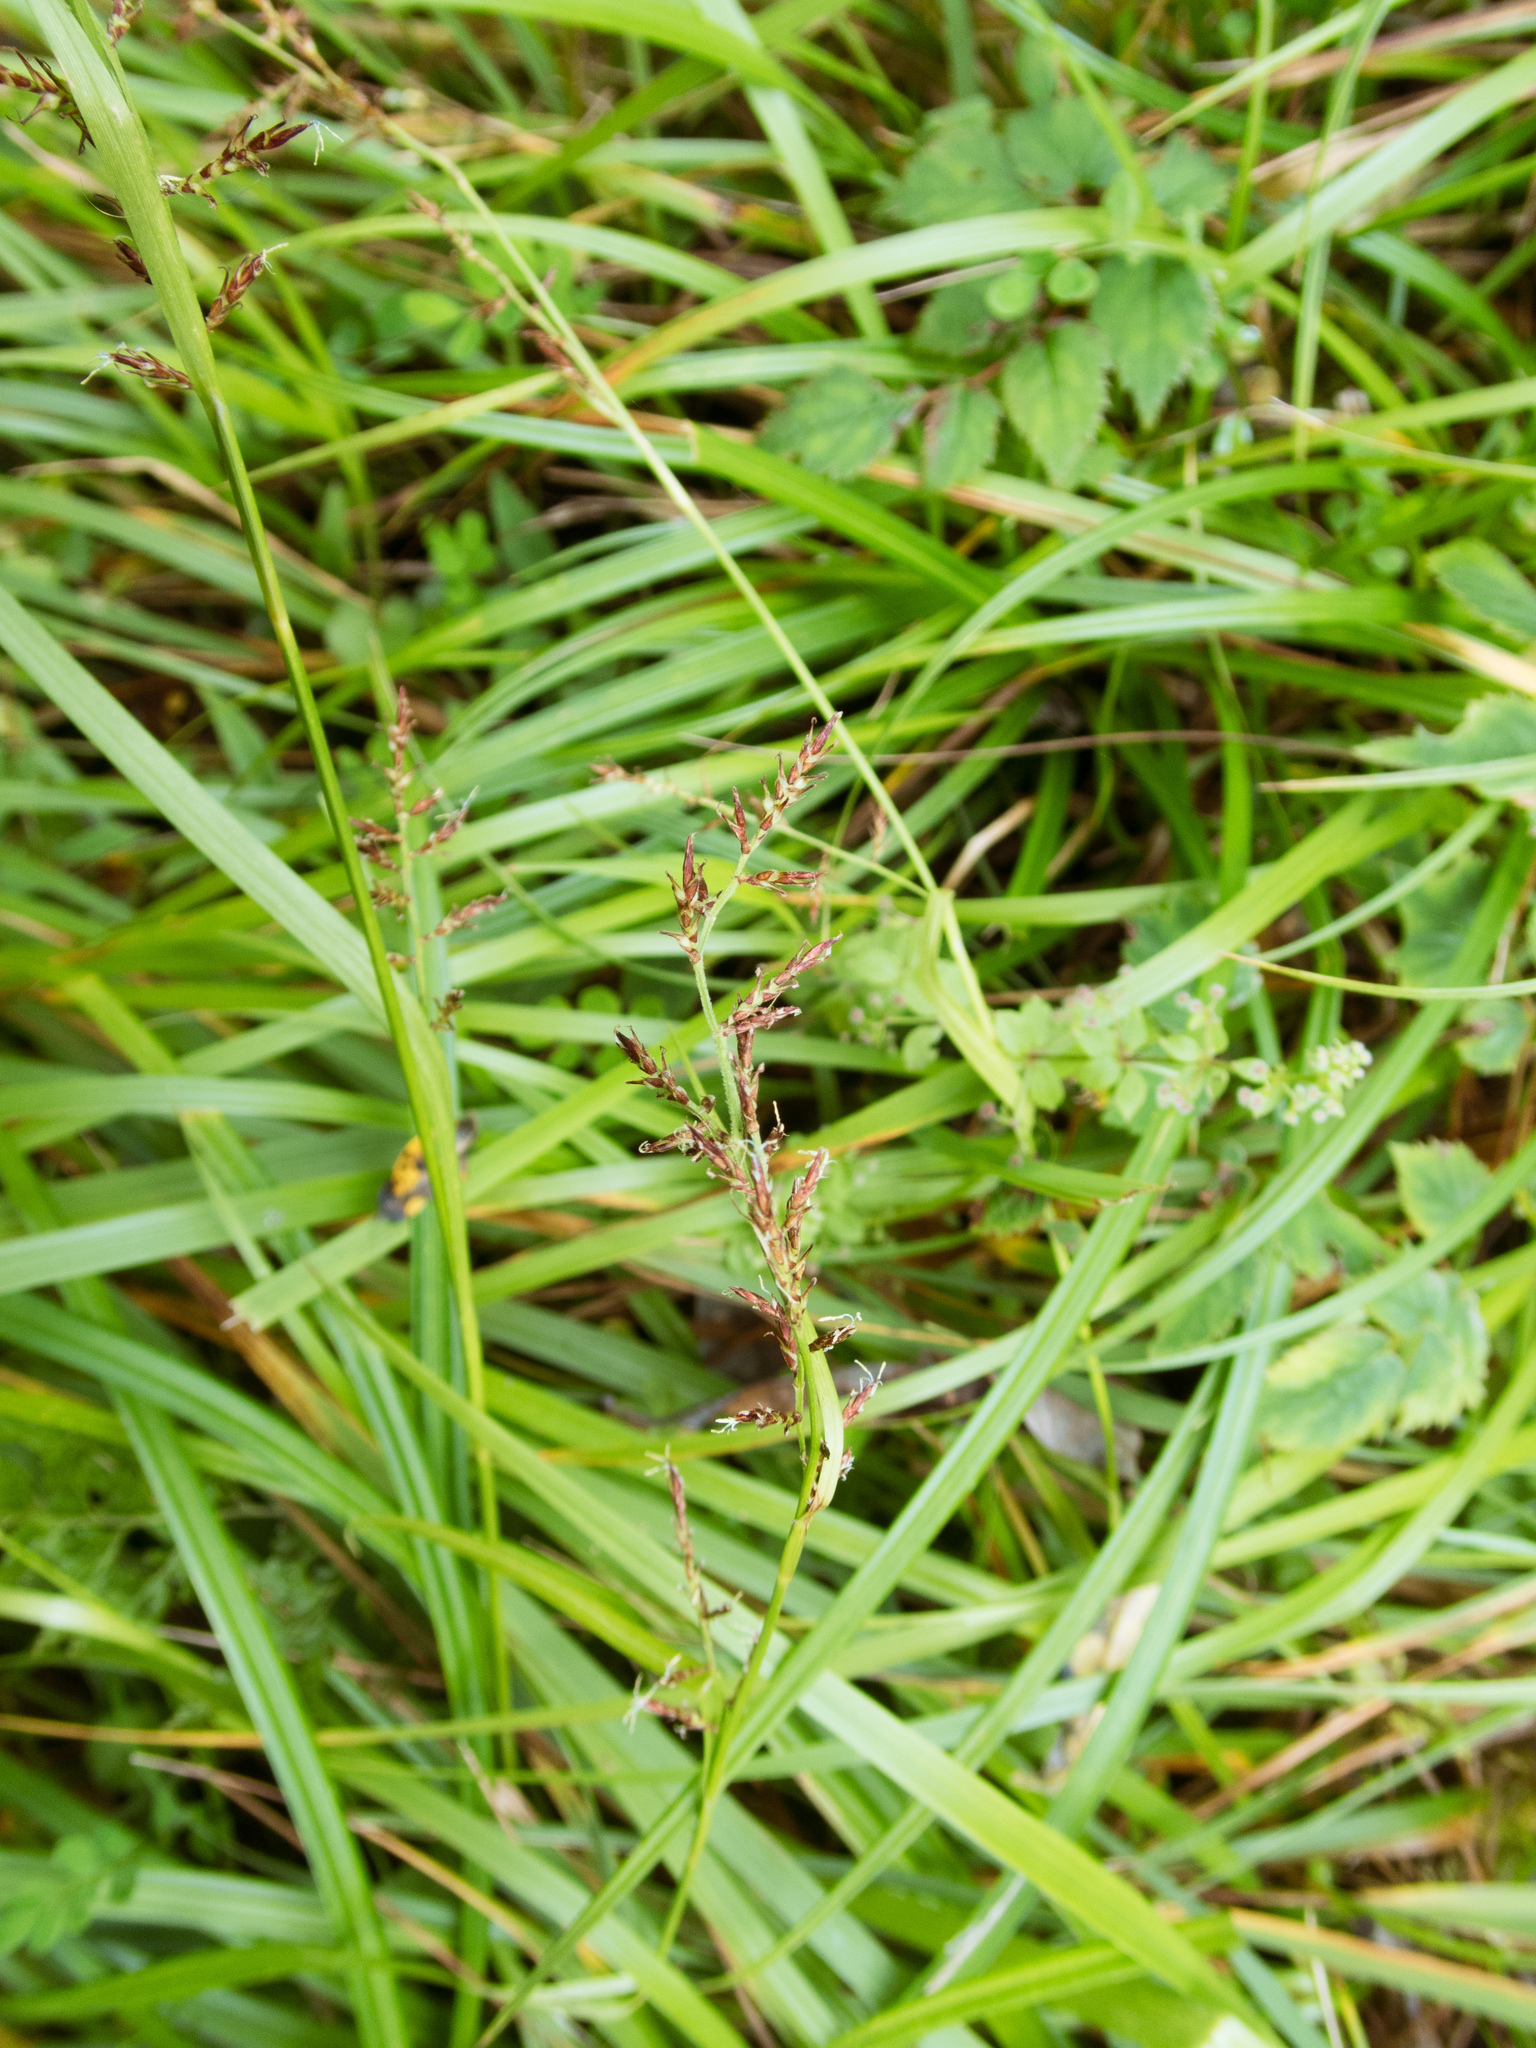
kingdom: Plantae
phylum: Tracheophyta
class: Liliopsida
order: Poales
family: Cyperaceae
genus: Carex
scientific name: Carex filicina
